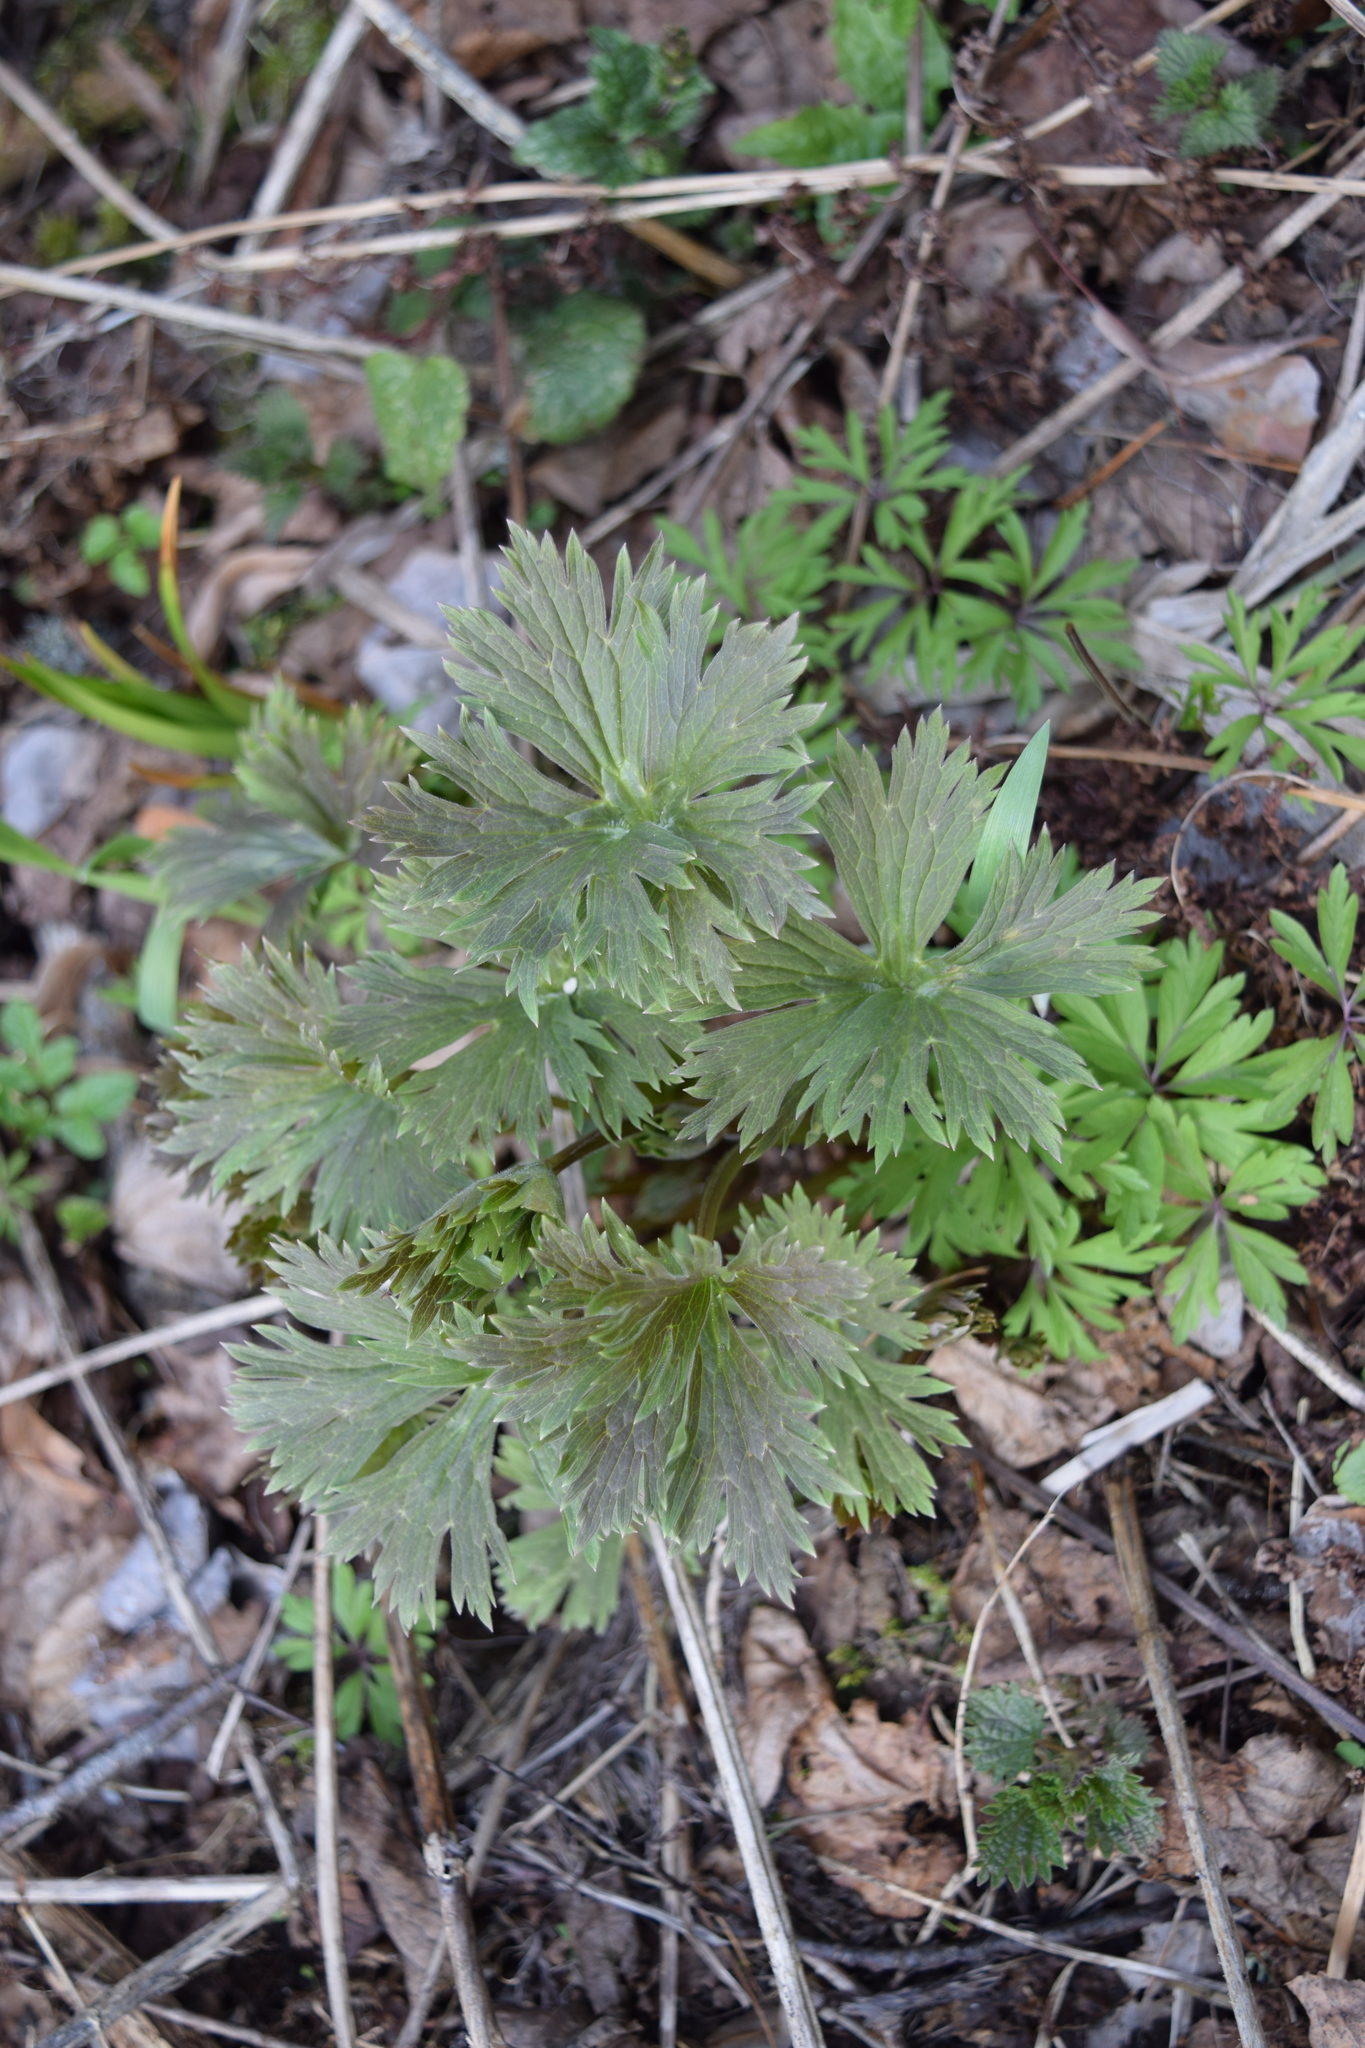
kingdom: Plantae
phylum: Tracheophyta
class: Magnoliopsida
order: Ranunculales
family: Ranunculaceae
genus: Trollius
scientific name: Trollius europaeus
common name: European globeflower
